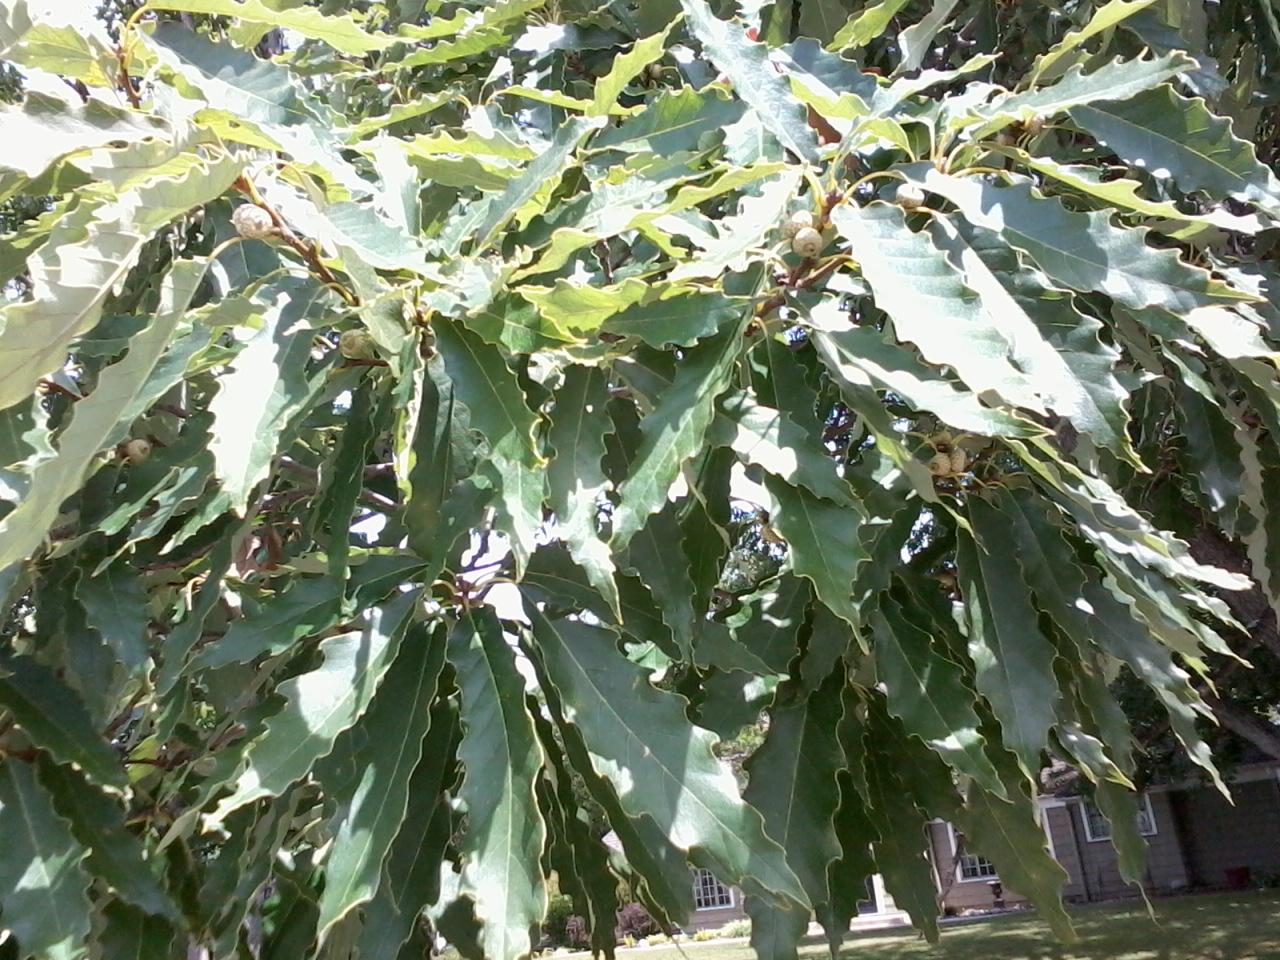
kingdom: Plantae
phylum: Tracheophyta
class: Magnoliopsida
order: Fagales
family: Fagaceae
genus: Quercus
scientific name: Quercus muehlenbergii
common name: Chinkapin oak
